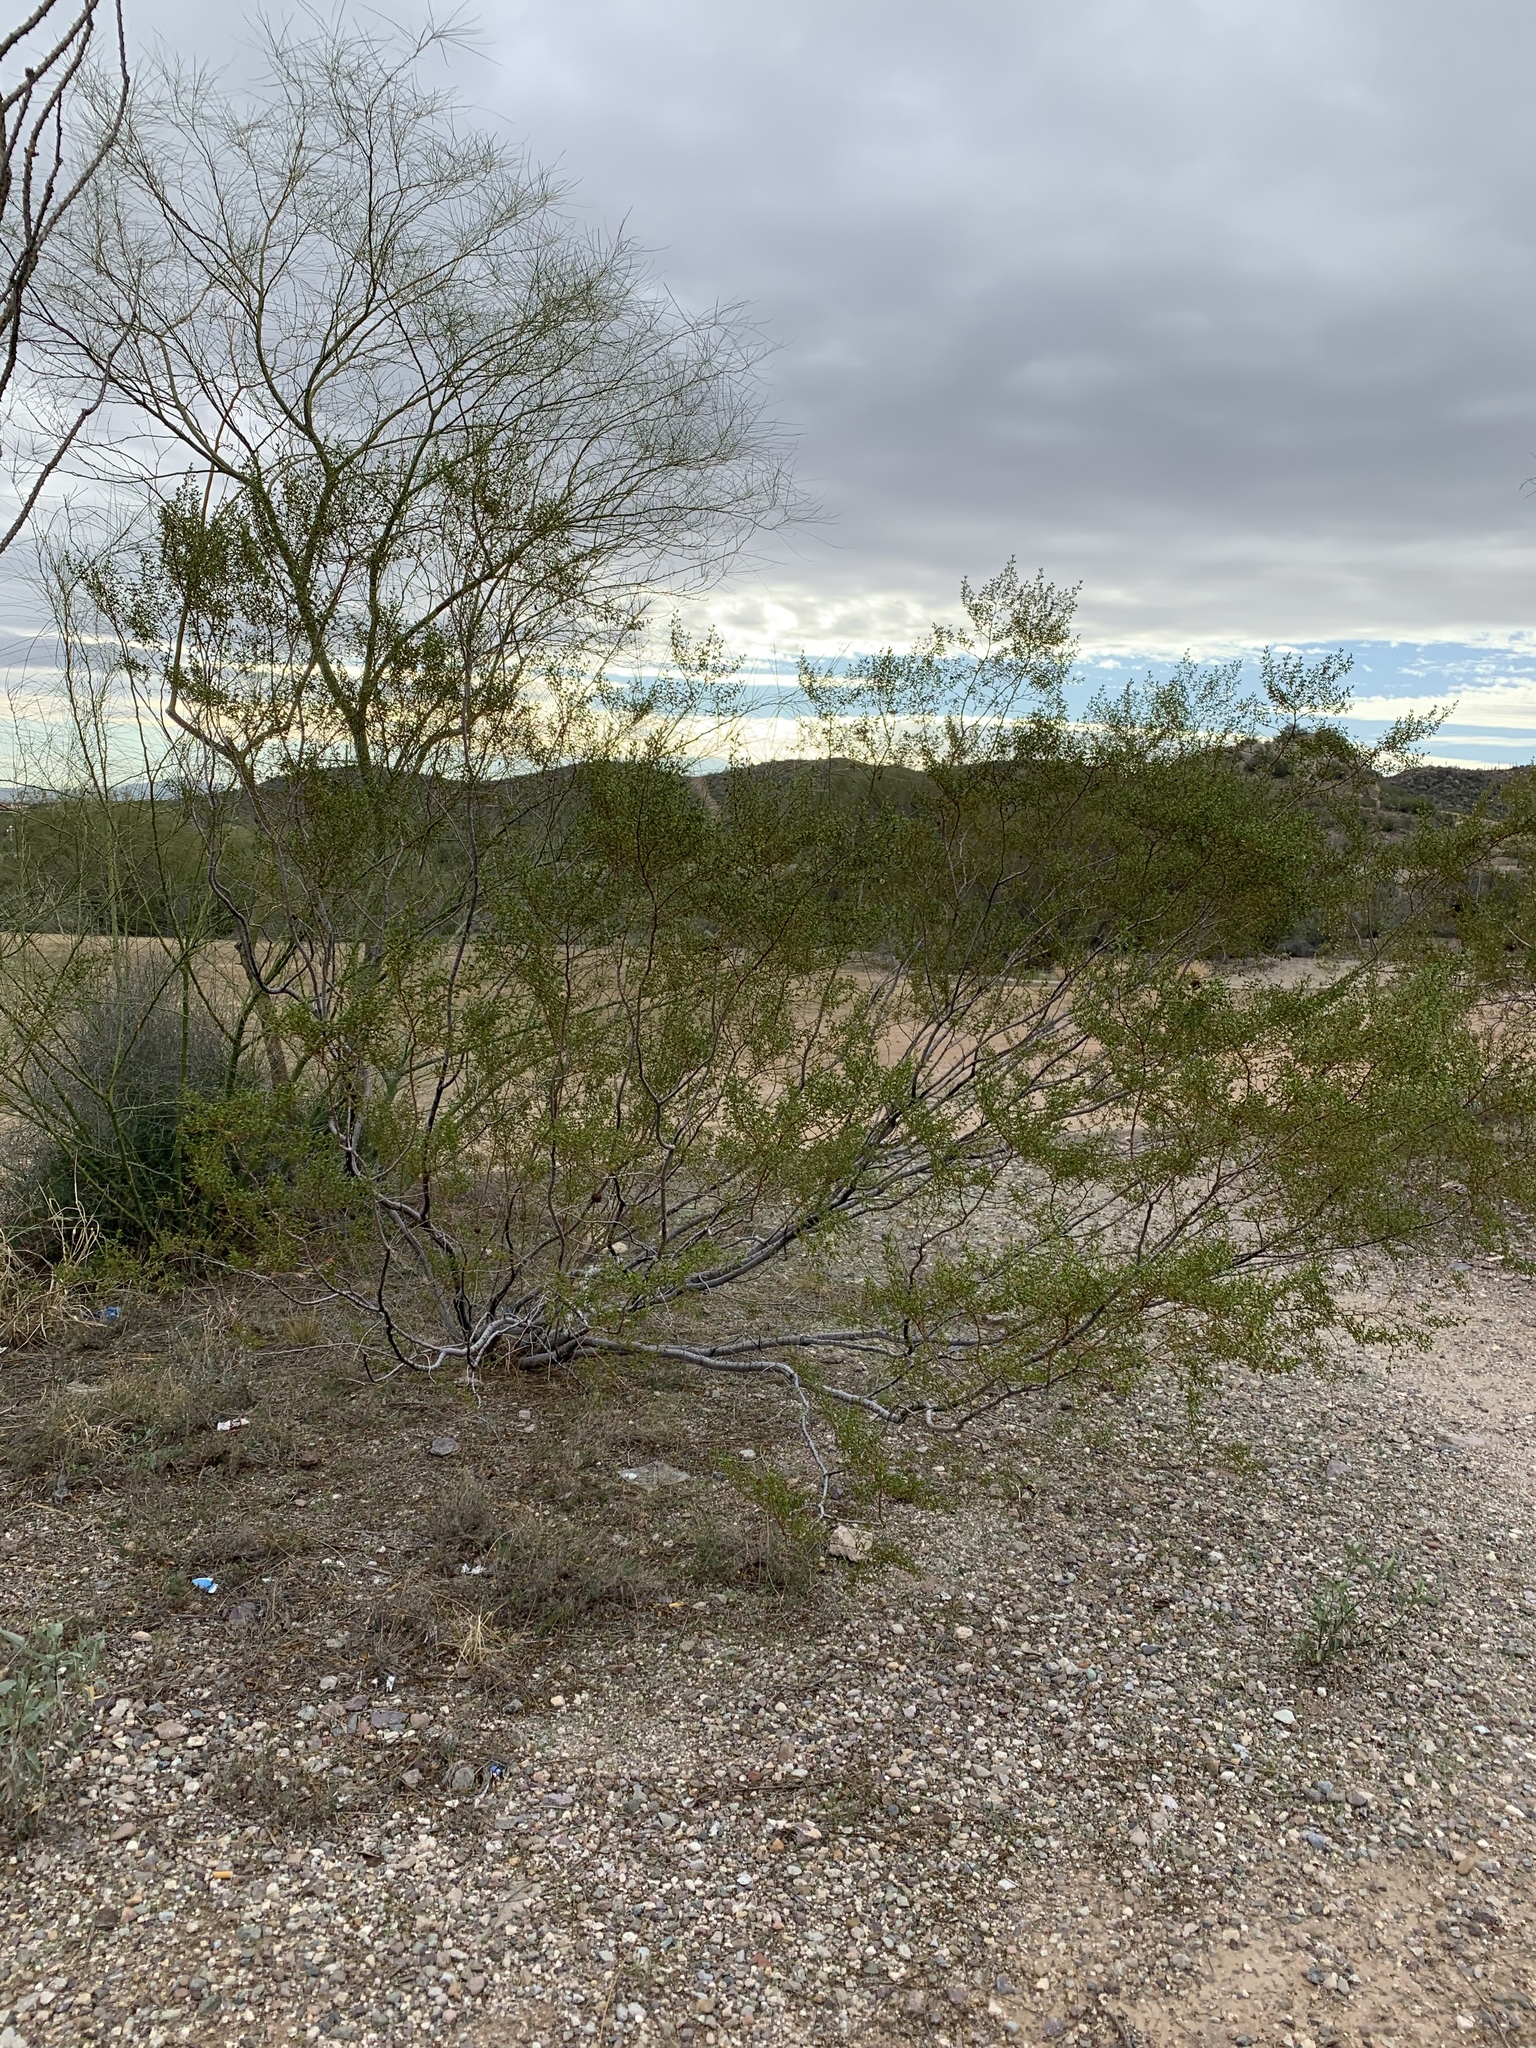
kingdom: Plantae
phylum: Tracheophyta
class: Magnoliopsida
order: Zygophyllales
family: Zygophyllaceae
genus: Larrea
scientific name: Larrea tridentata
